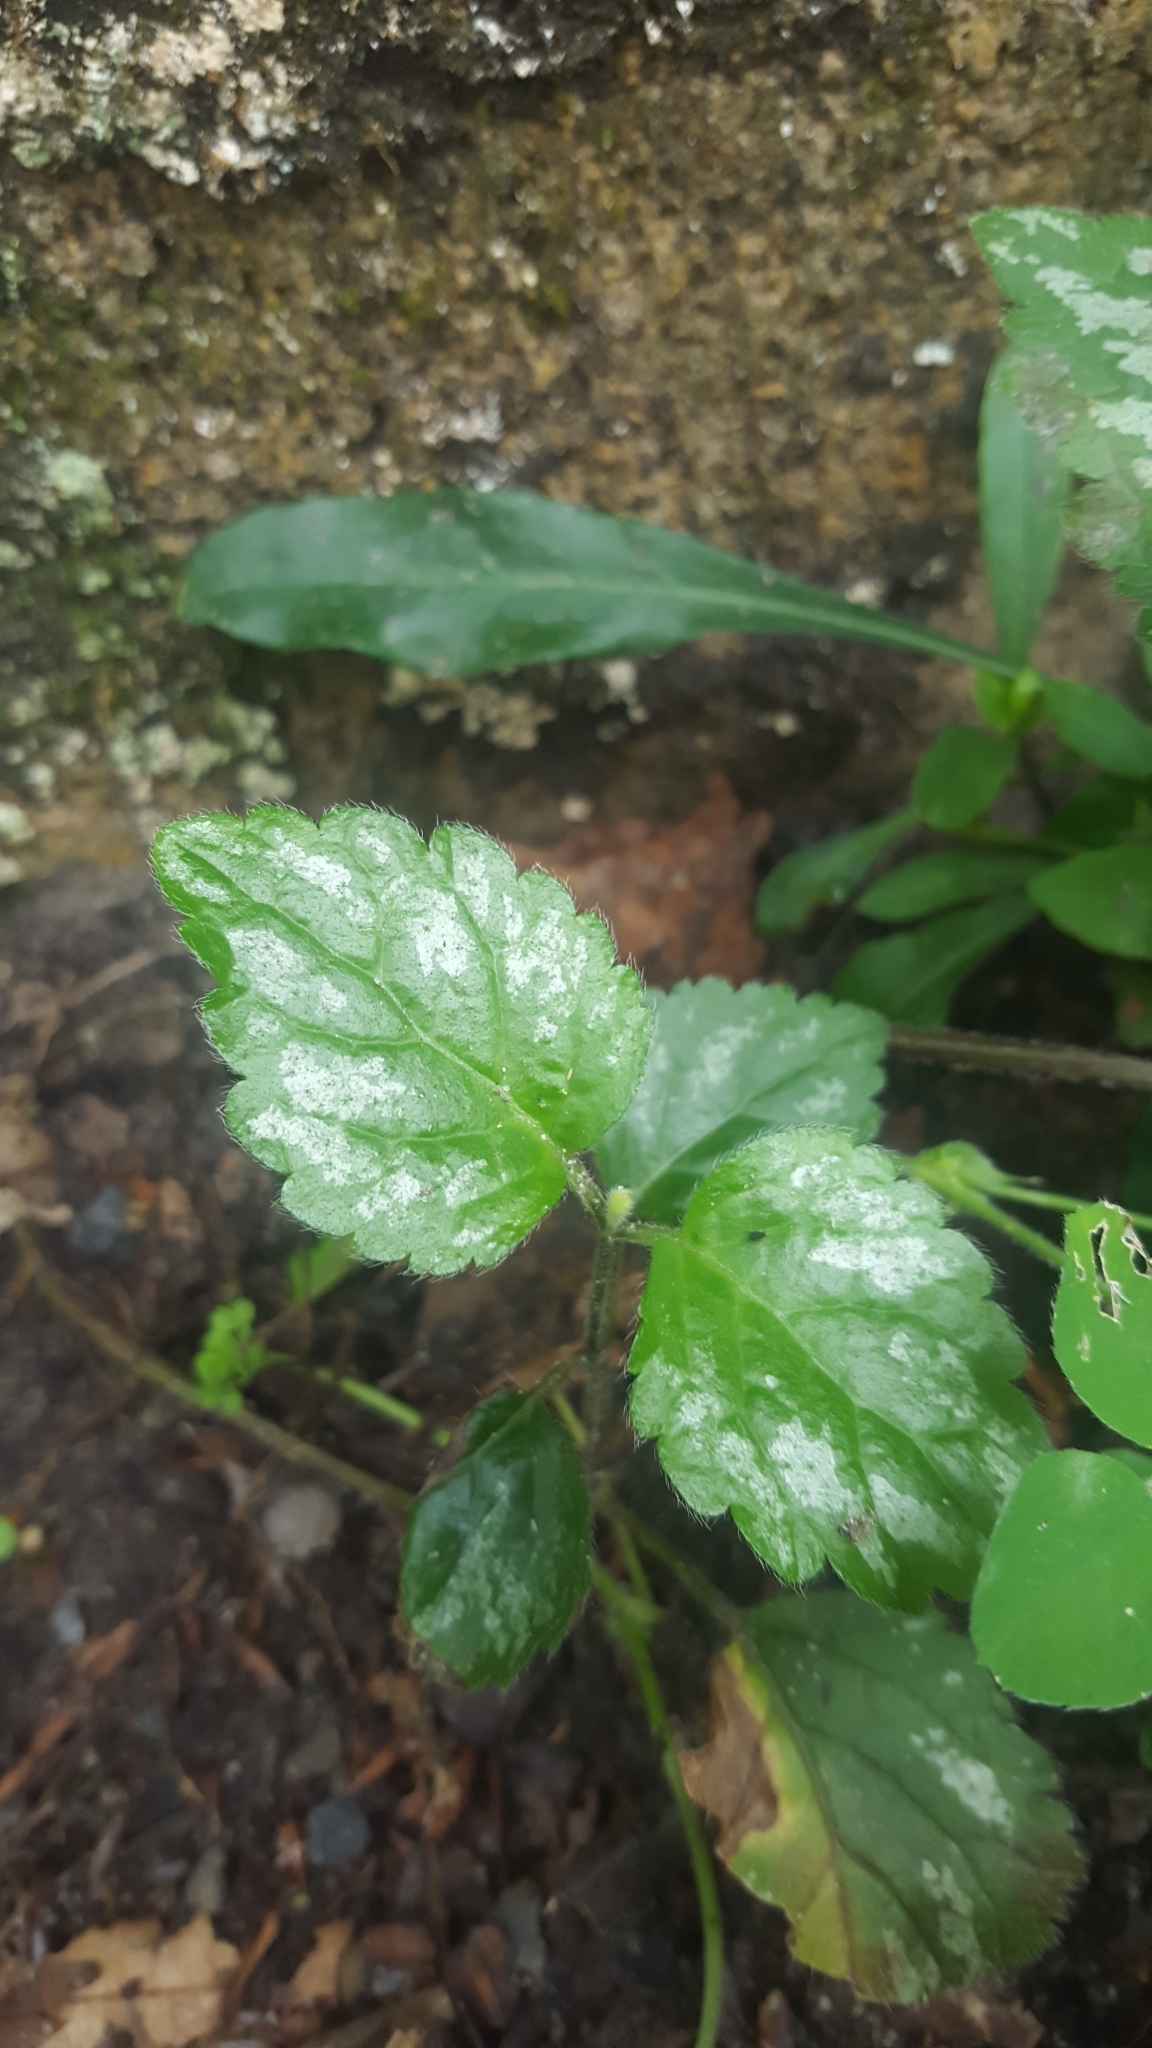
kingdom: Plantae
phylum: Tracheophyta
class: Magnoliopsida
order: Lamiales
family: Lamiaceae
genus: Lamium
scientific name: Lamium galeobdolon
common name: Yellow archangel
